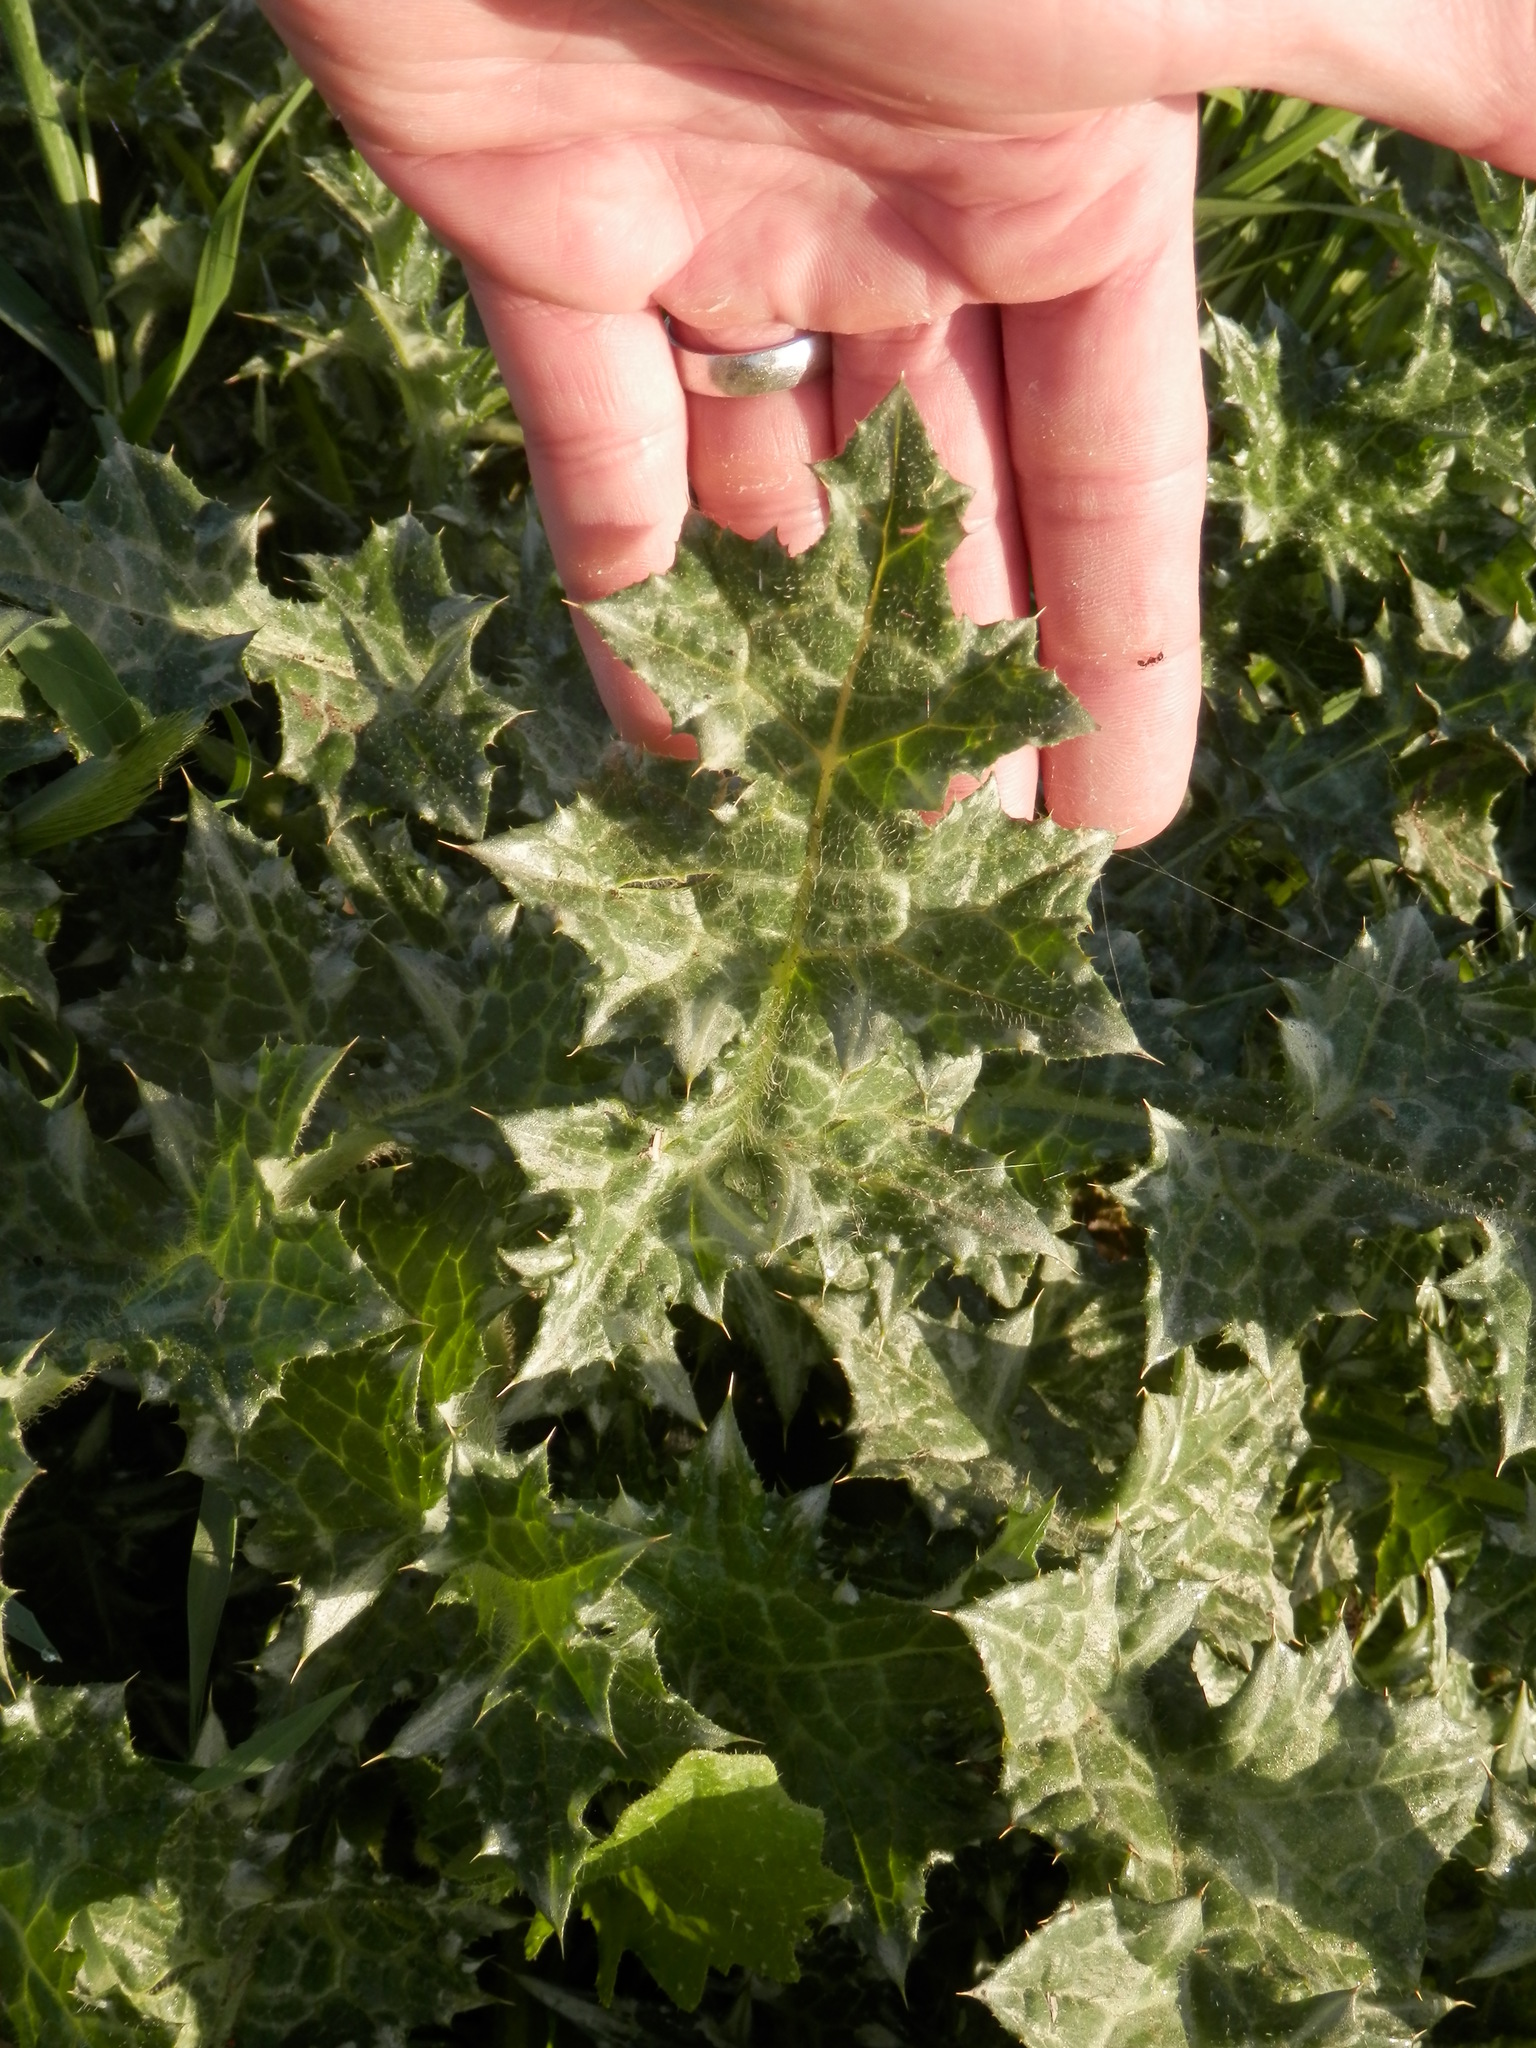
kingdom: Plantae
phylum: Tracheophyta
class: Magnoliopsida
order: Asterales
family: Asteraceae
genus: Carduus
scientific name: Carduus pycnocephalus
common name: Plymouth thistle
